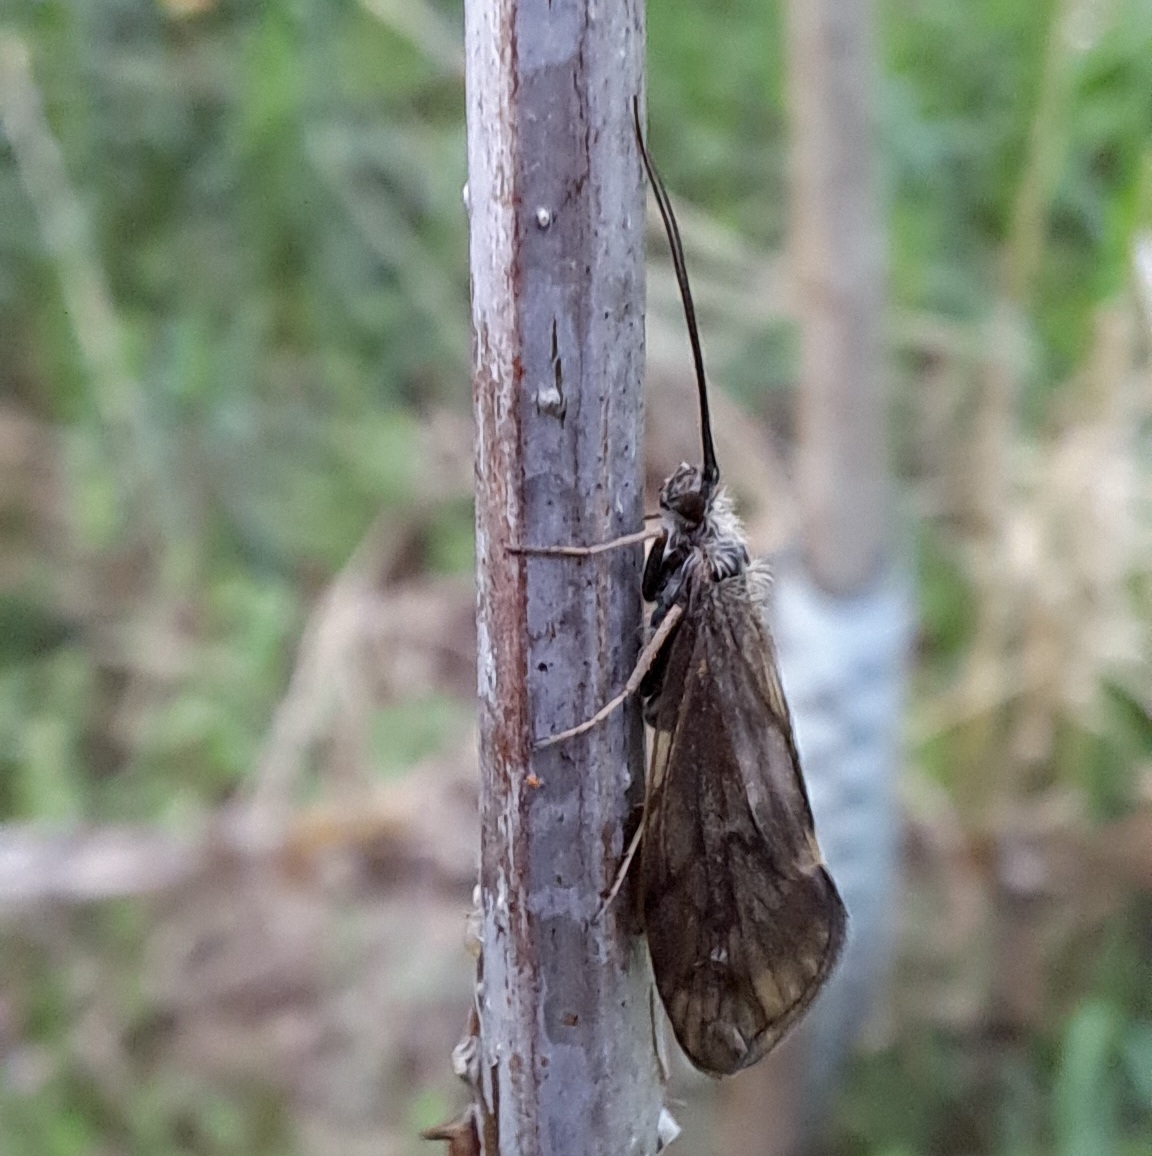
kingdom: Animalia
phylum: Arthropoda
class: Insecta
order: Trichoptera
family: Brachycentridae
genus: Brachycentrus
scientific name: Brachycentrus subnubilis
